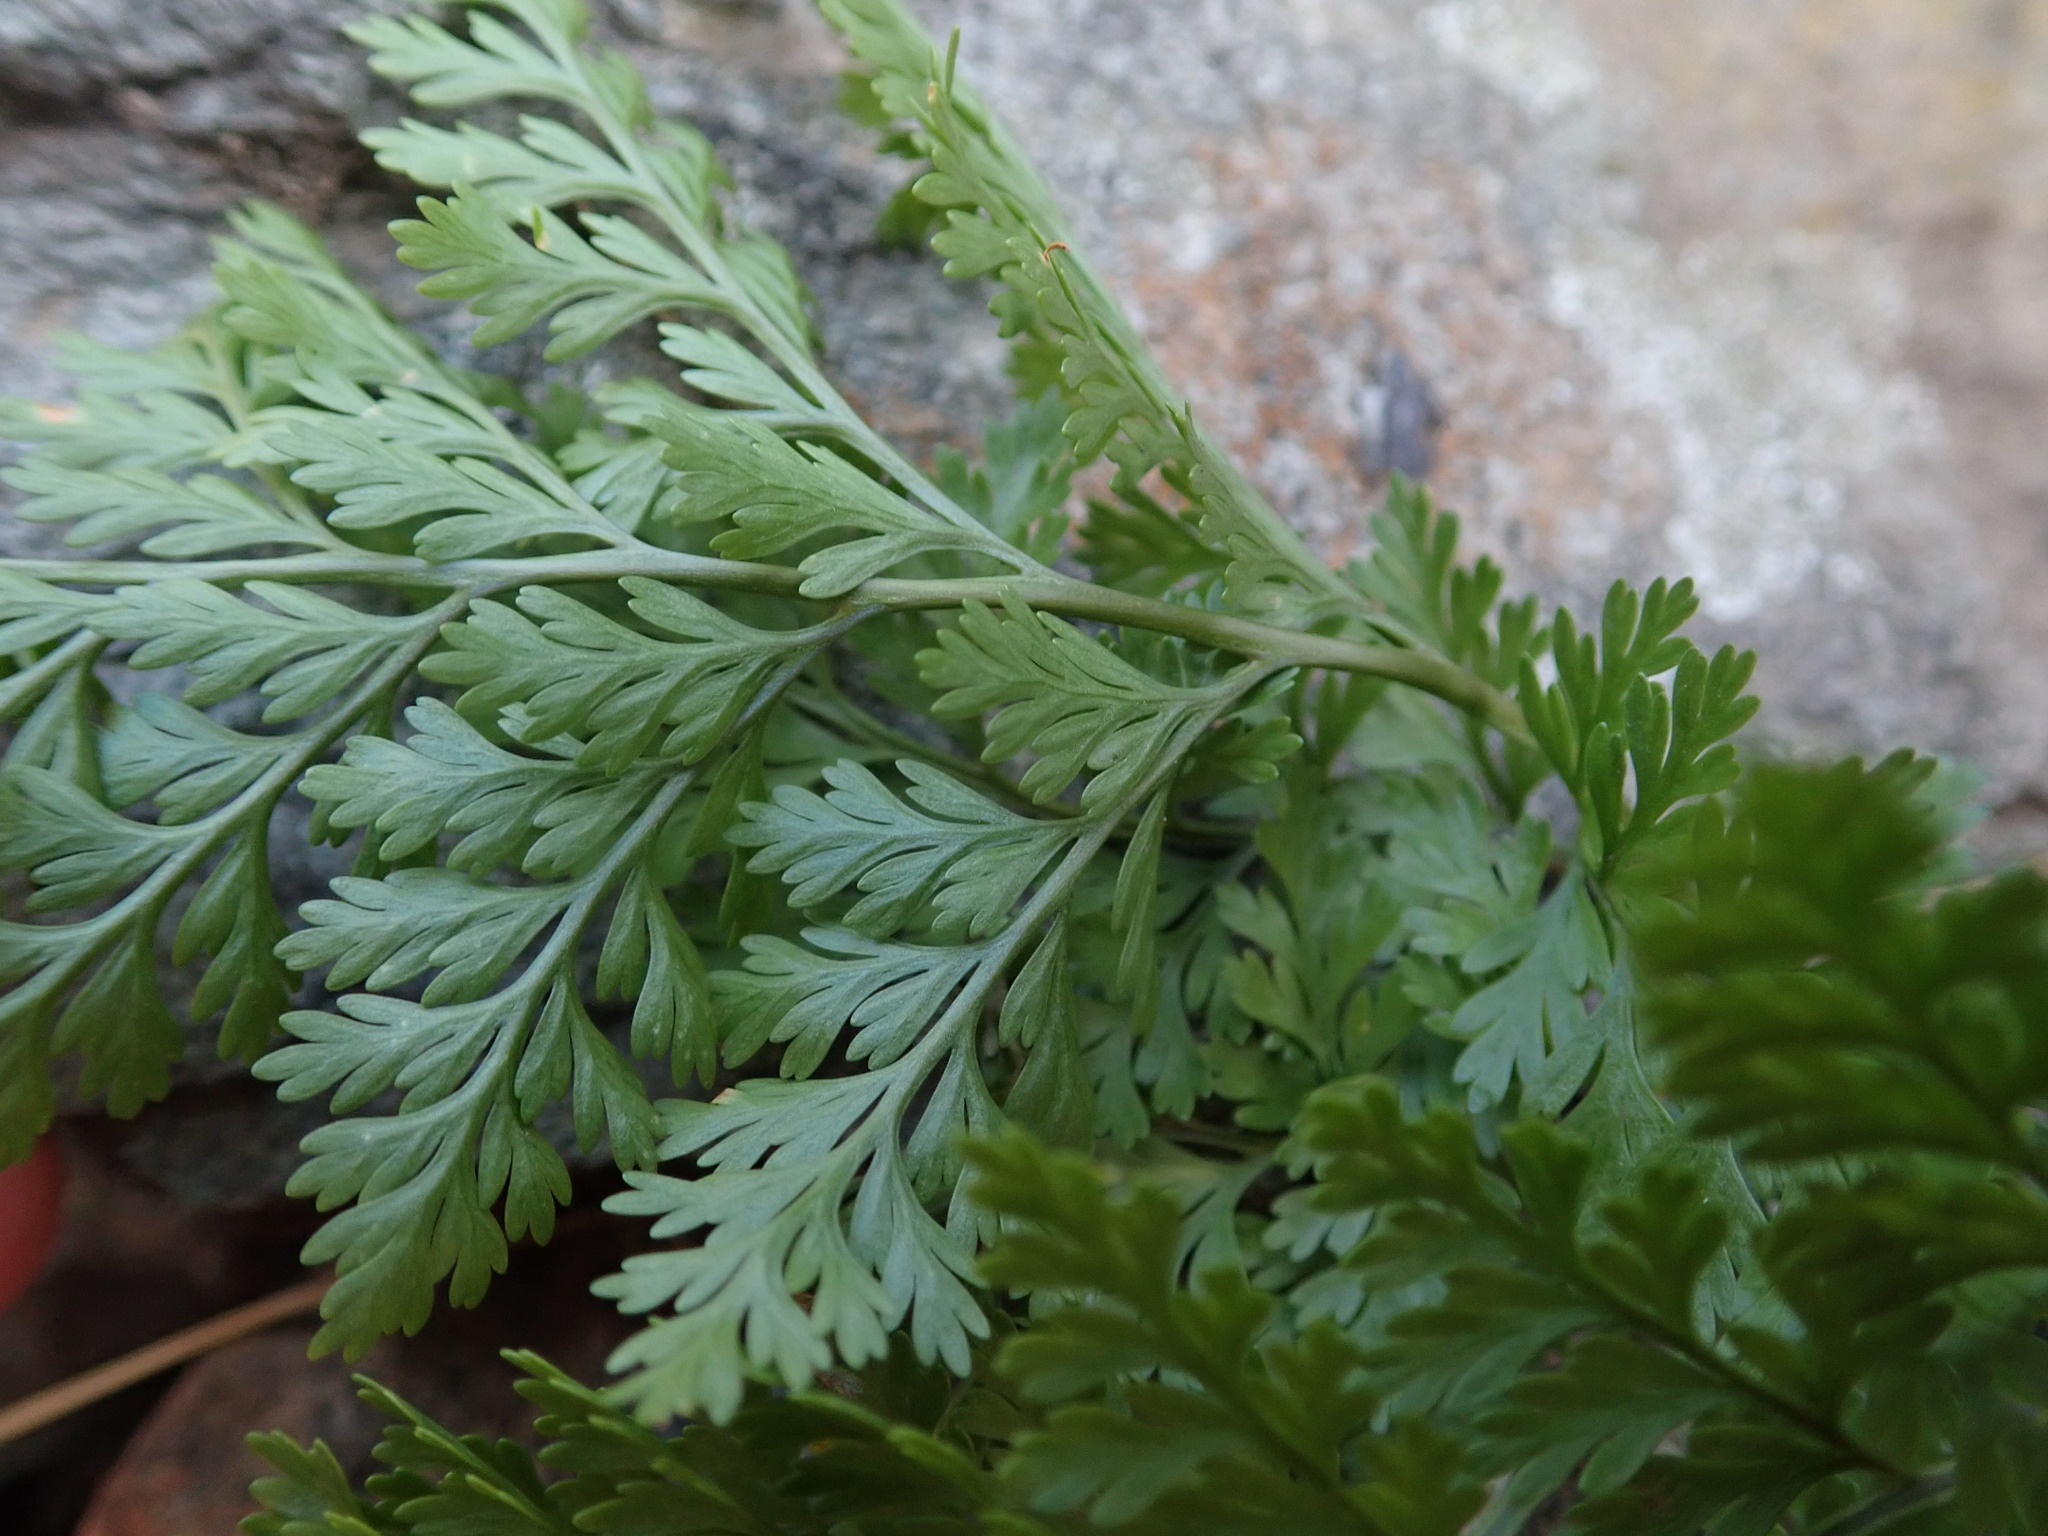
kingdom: Plantae
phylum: Tracheophyta
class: Polypodiopsida
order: Polypodiales
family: Davalliaceae
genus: Davallia
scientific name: Davallia canariensis
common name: Hare's-foot fern
